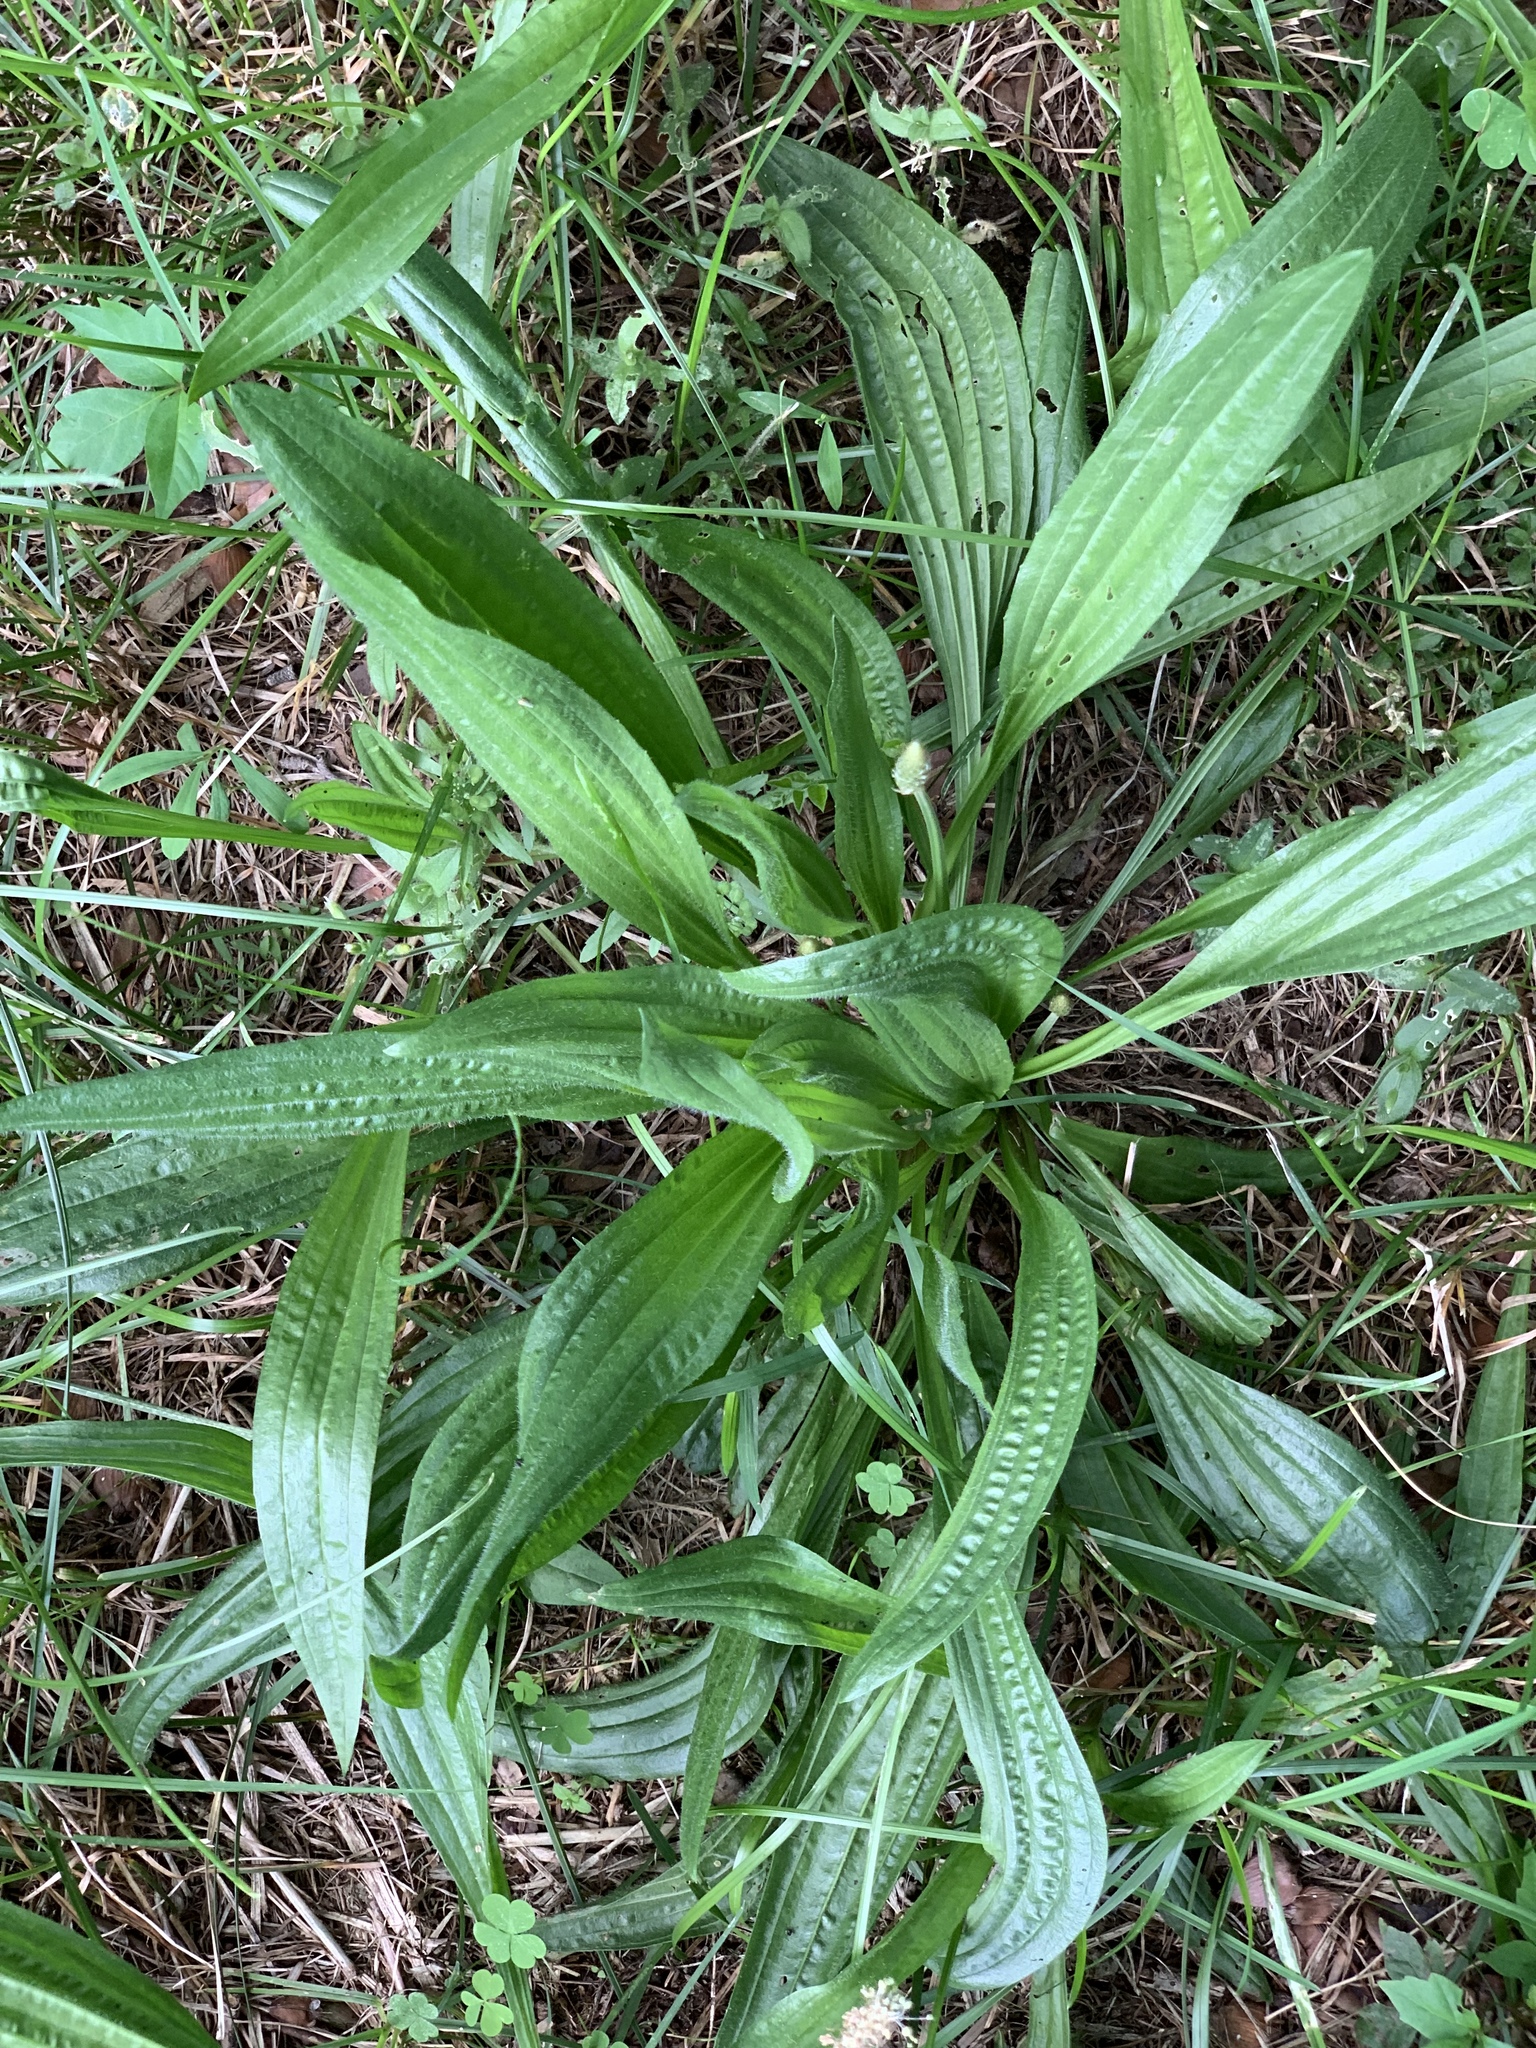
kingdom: Plantae
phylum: Tracheophyta
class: Magnoliopsida
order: Lamiales
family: Plantaginaceae
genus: Plantago
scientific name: Plantago lanceolata
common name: Ribwort plantain
